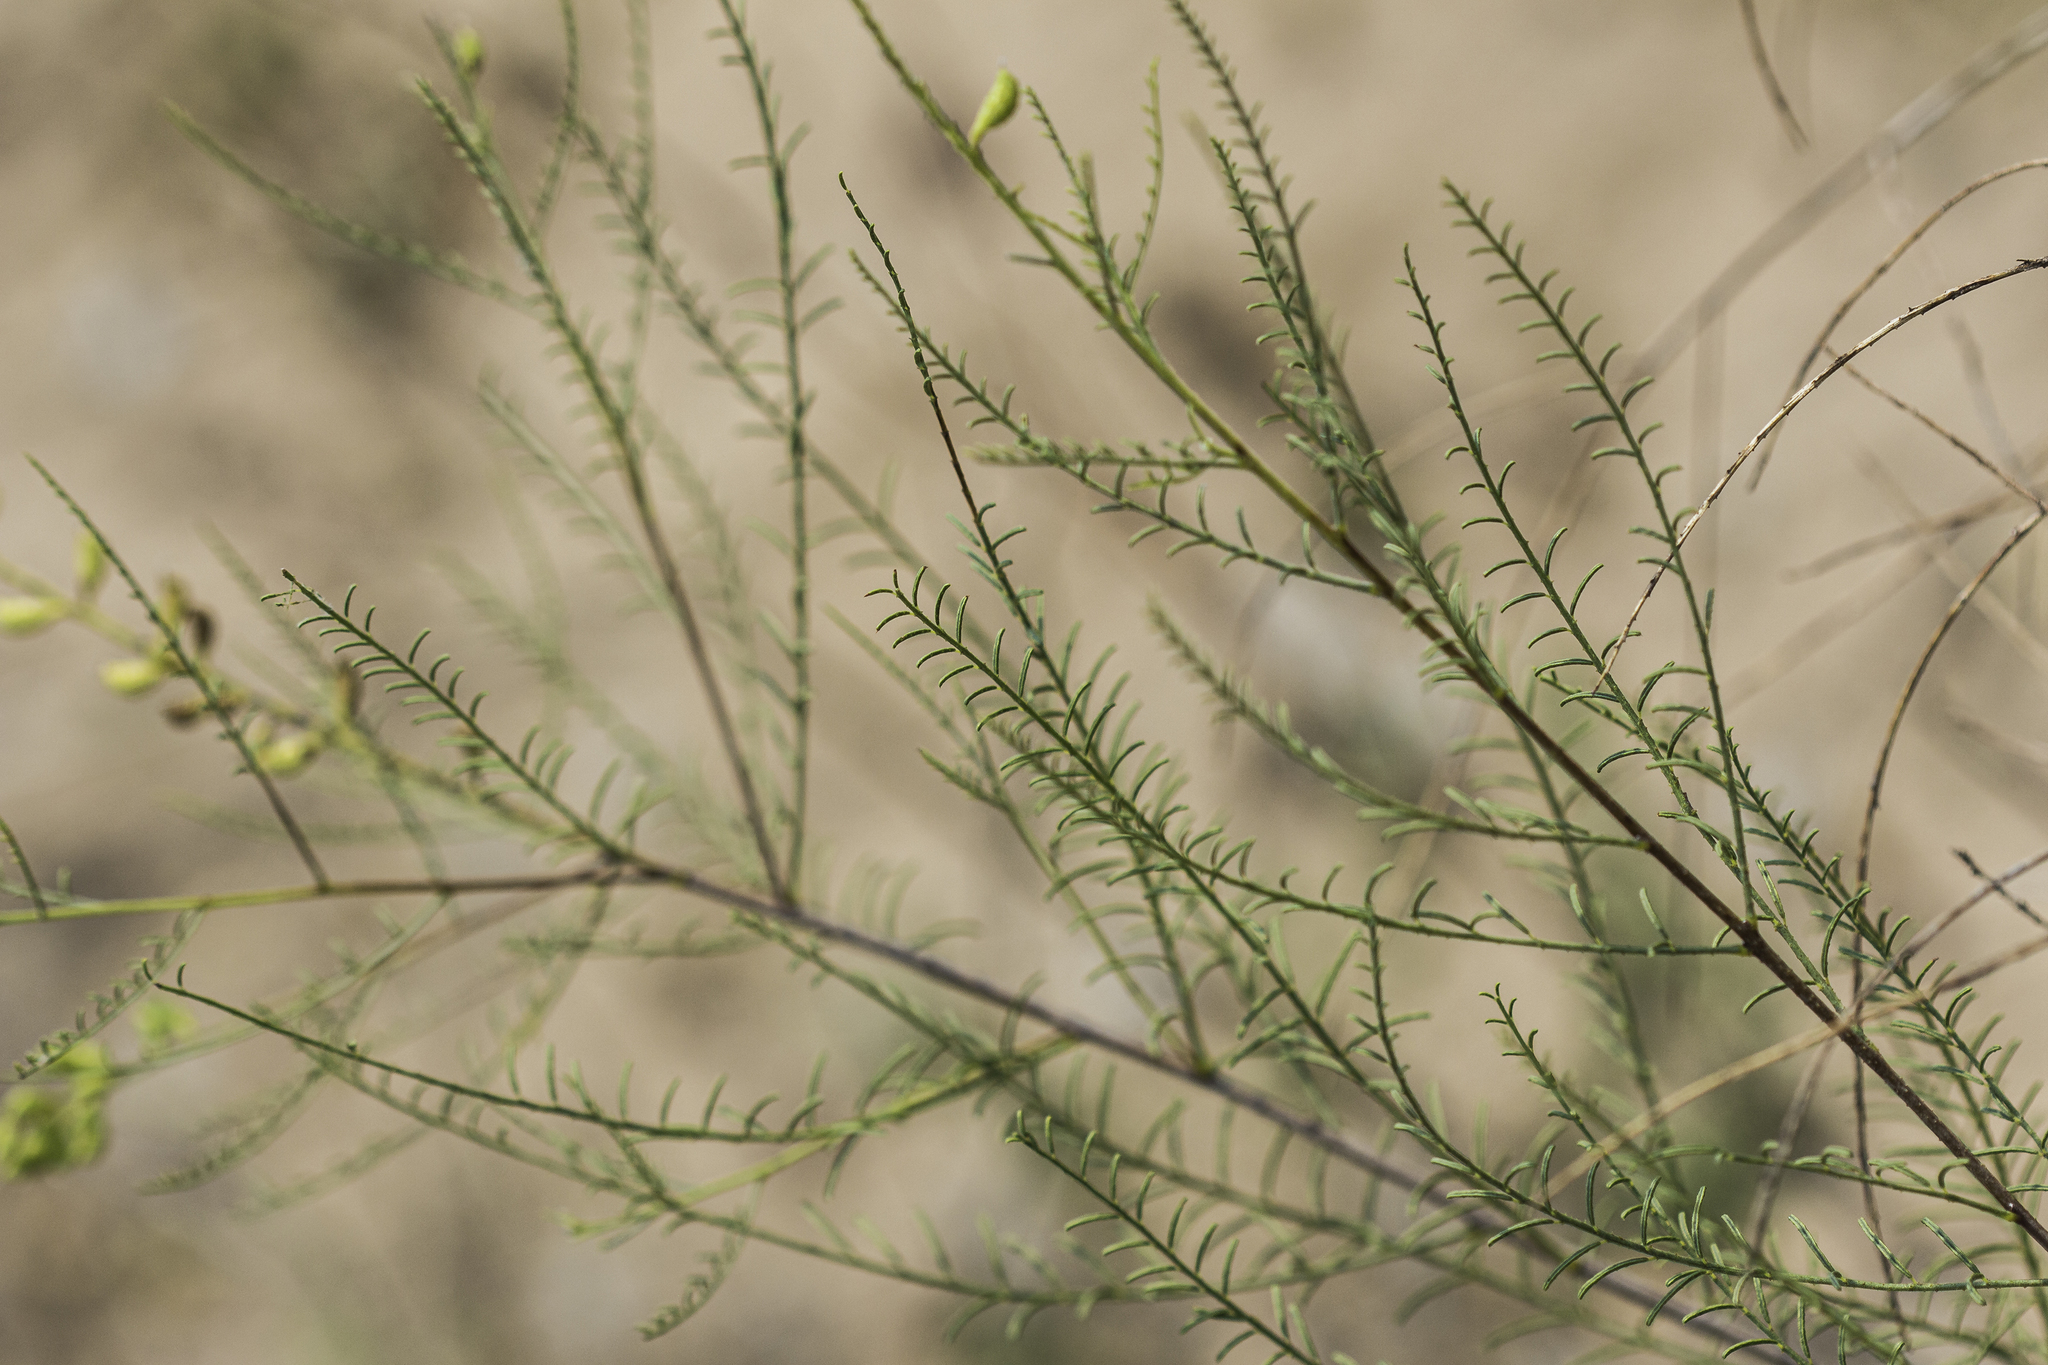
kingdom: Plantae
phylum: Tracheophyta
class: Magnoliopsida
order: Fabales
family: Fabaceae
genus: Parryella
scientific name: Parryella filifolia
